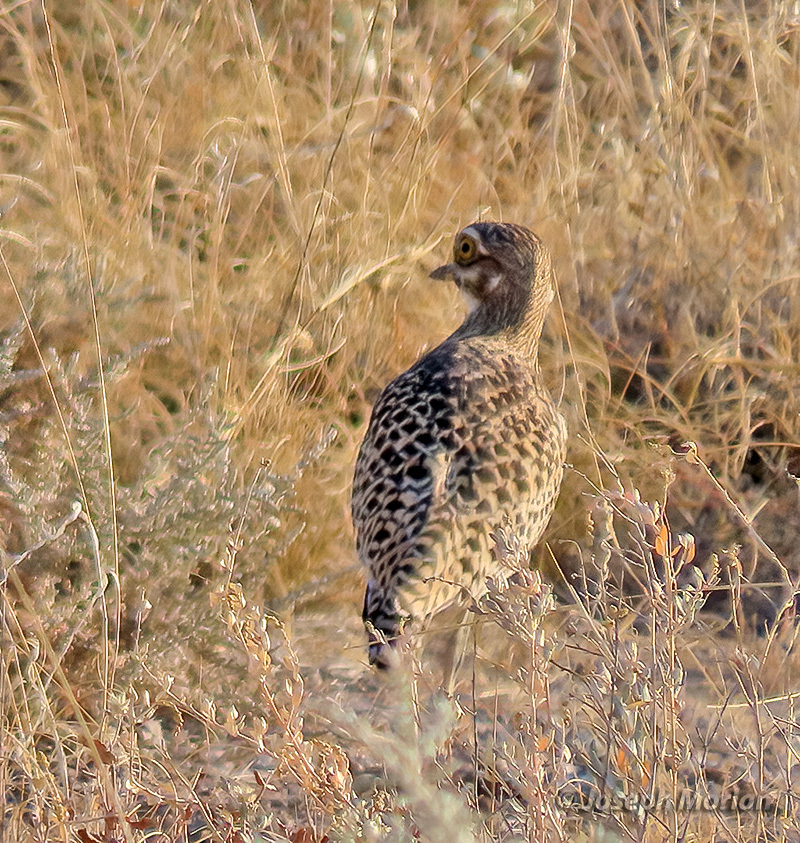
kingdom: Animalia
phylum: Chordata
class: Aves
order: Charadriiformes
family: Burhinidae
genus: Burhinus
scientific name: Burhinus capensis
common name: Spotted thick-knee
